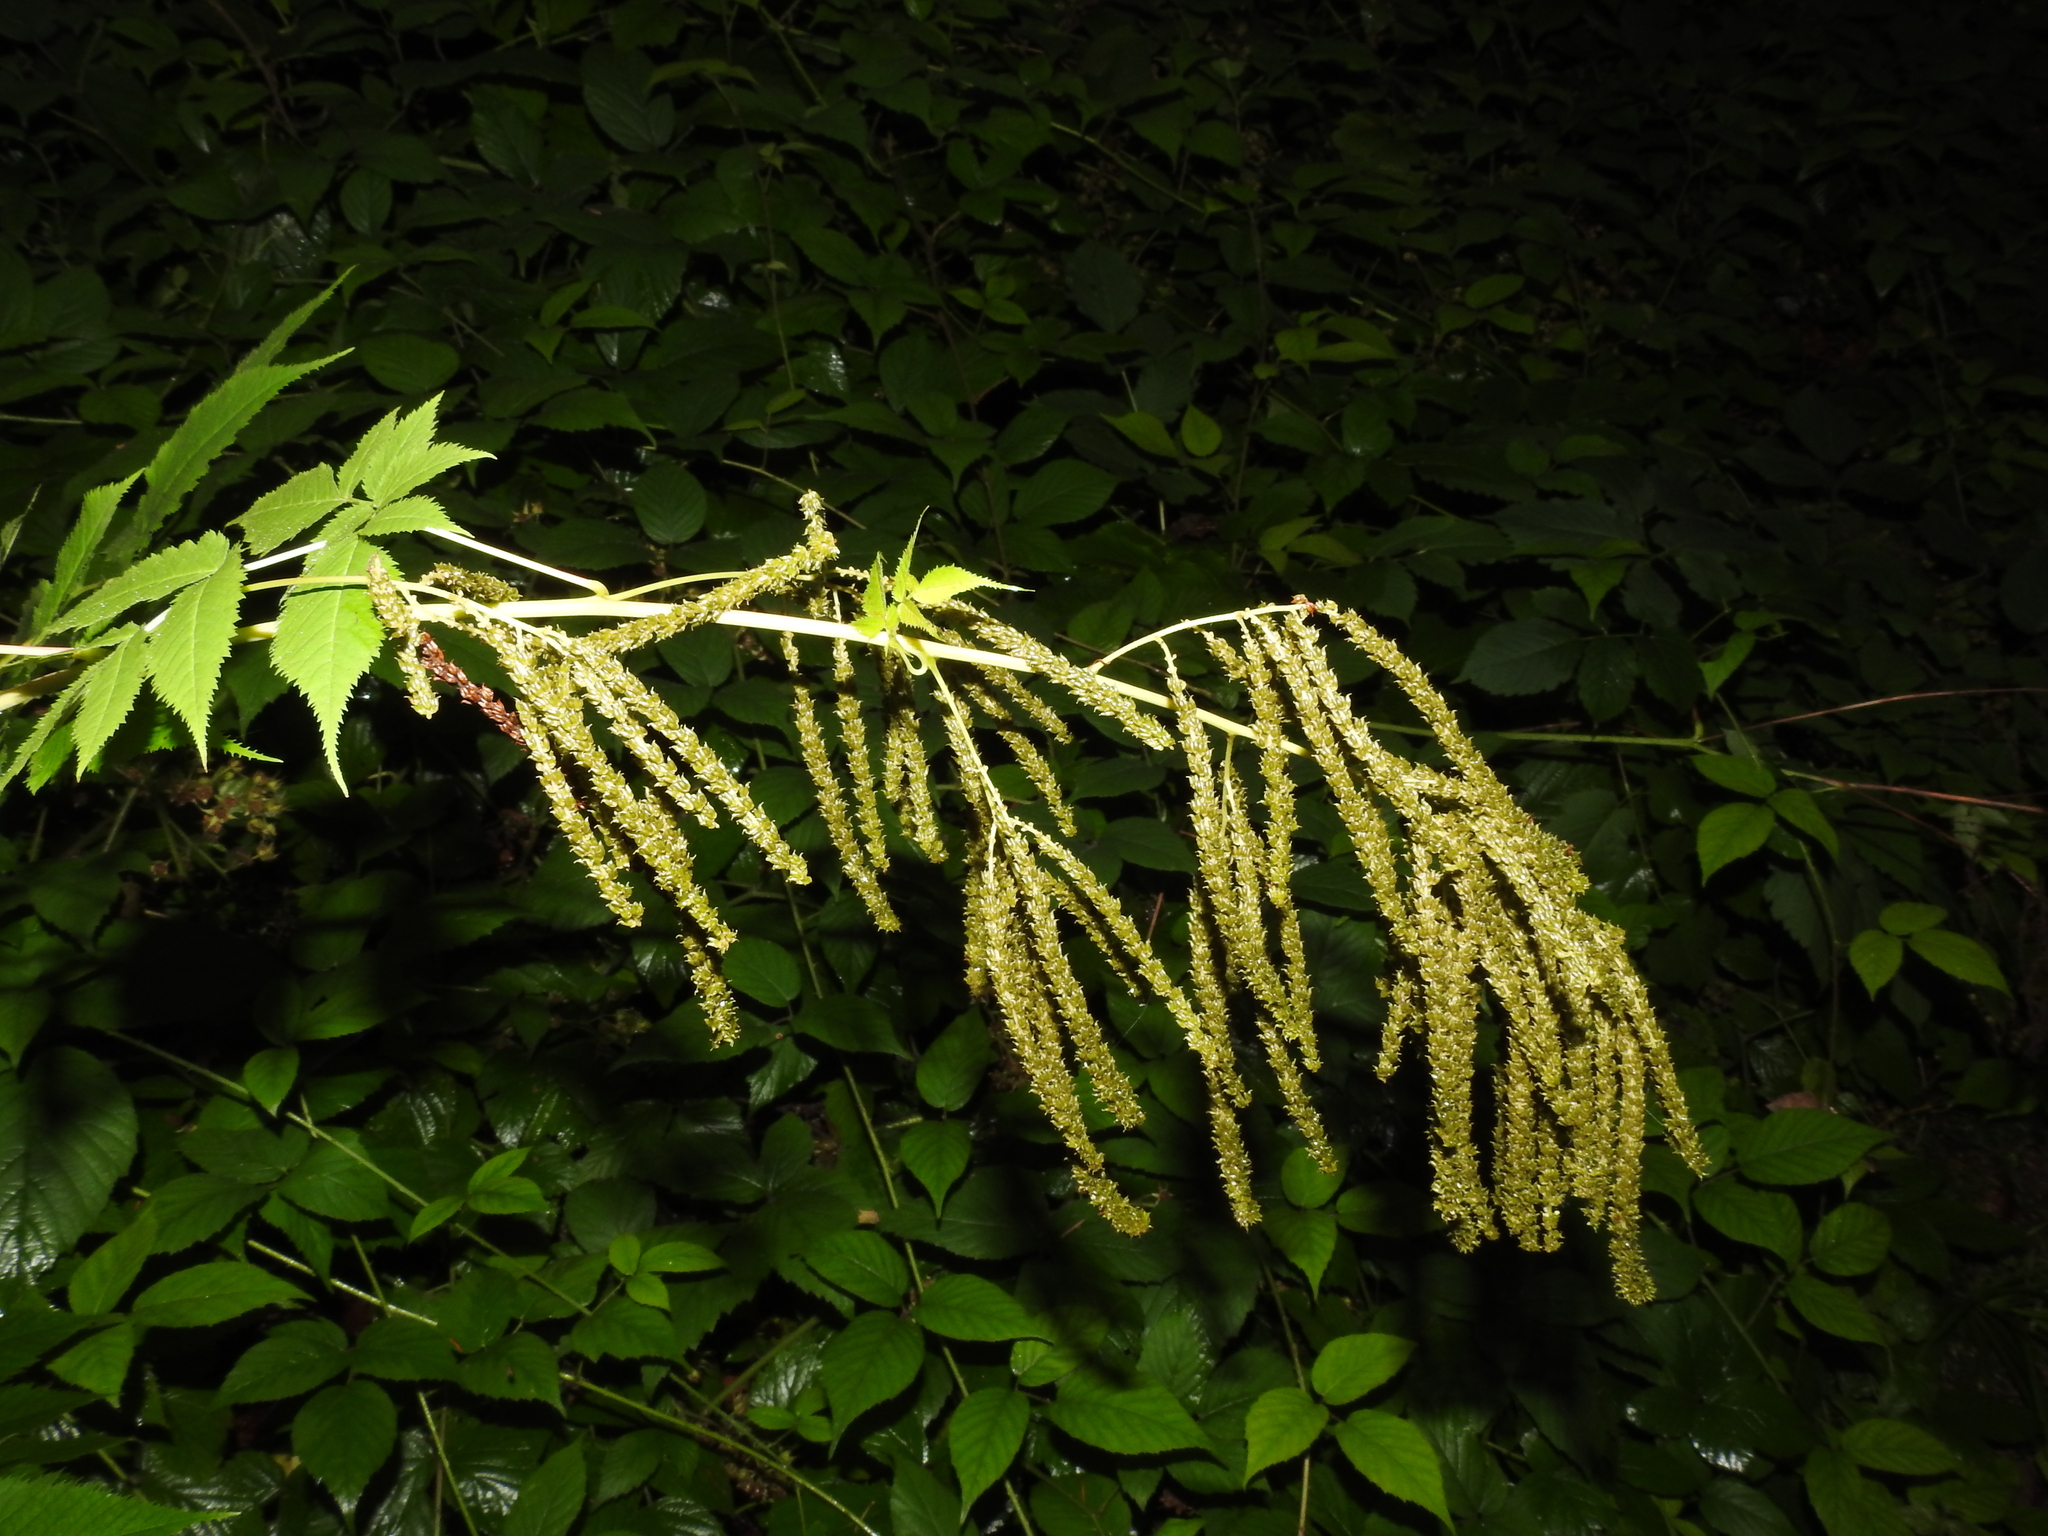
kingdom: Plantae
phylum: Tracheophyta
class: Magnoliopsida
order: Rosales
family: Rosaceae
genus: Aruncus
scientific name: Aruncus dioicus
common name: Buck's-beard
